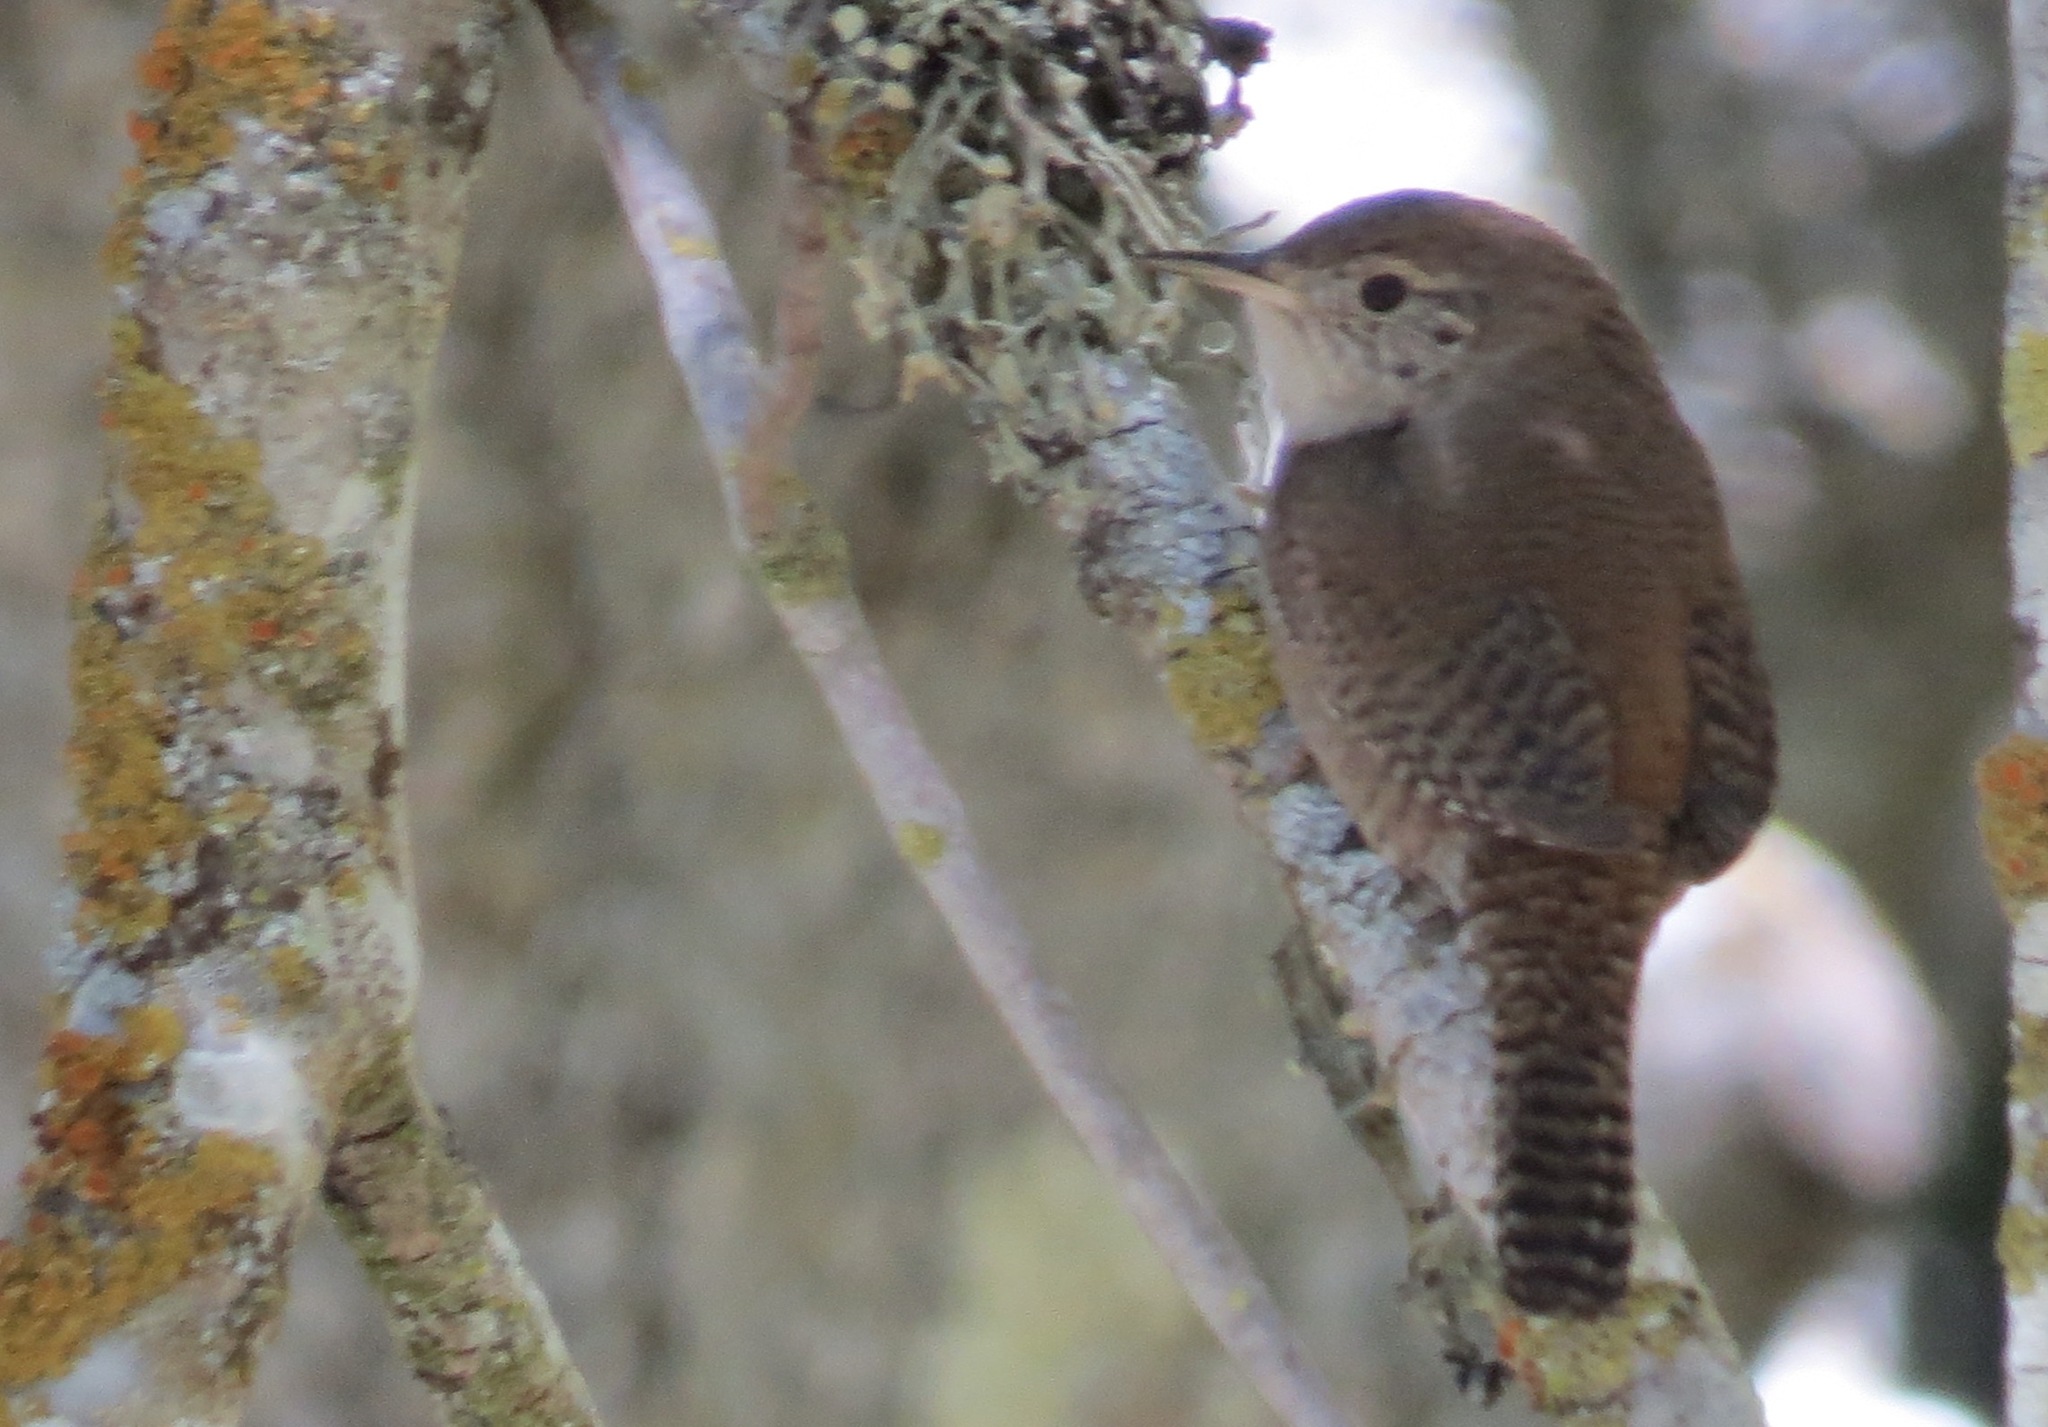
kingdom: Animalia
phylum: Chordata
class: Aves
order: Passeriformes
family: Troglodytidae
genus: Troglodytes
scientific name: Troglodytes aedon
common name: House wren
